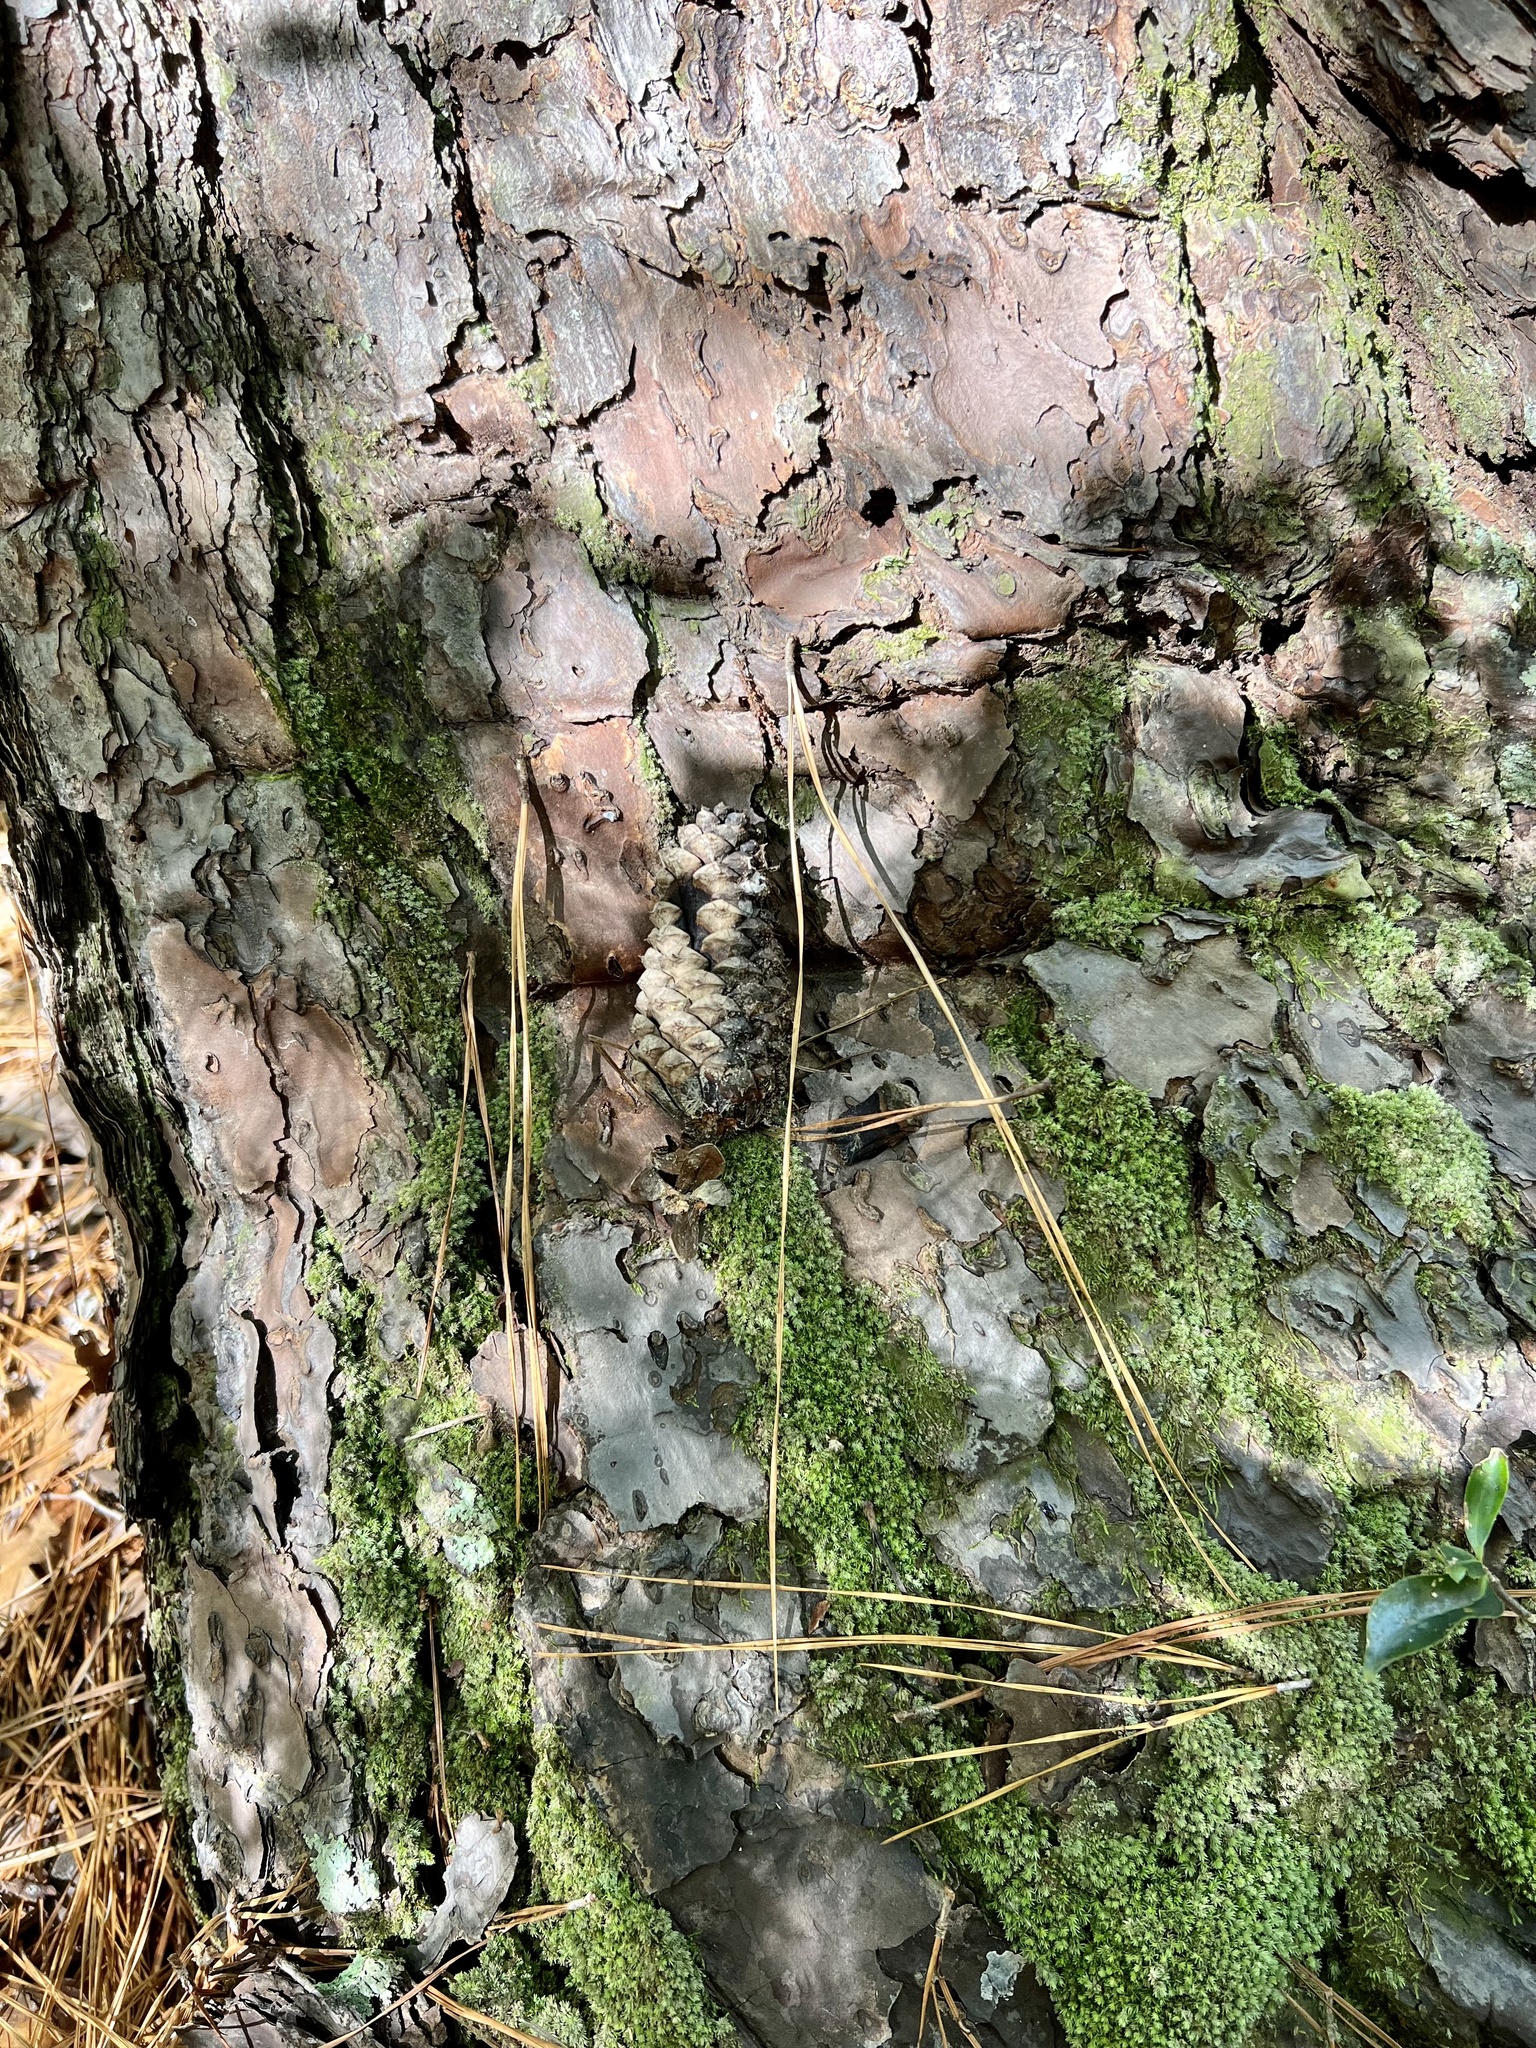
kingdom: Plantae
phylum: Tracheophyta
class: Pinopsida
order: Pinales
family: Pinaceae
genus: Pinus
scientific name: Pinus taeda
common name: Loblolly pine
